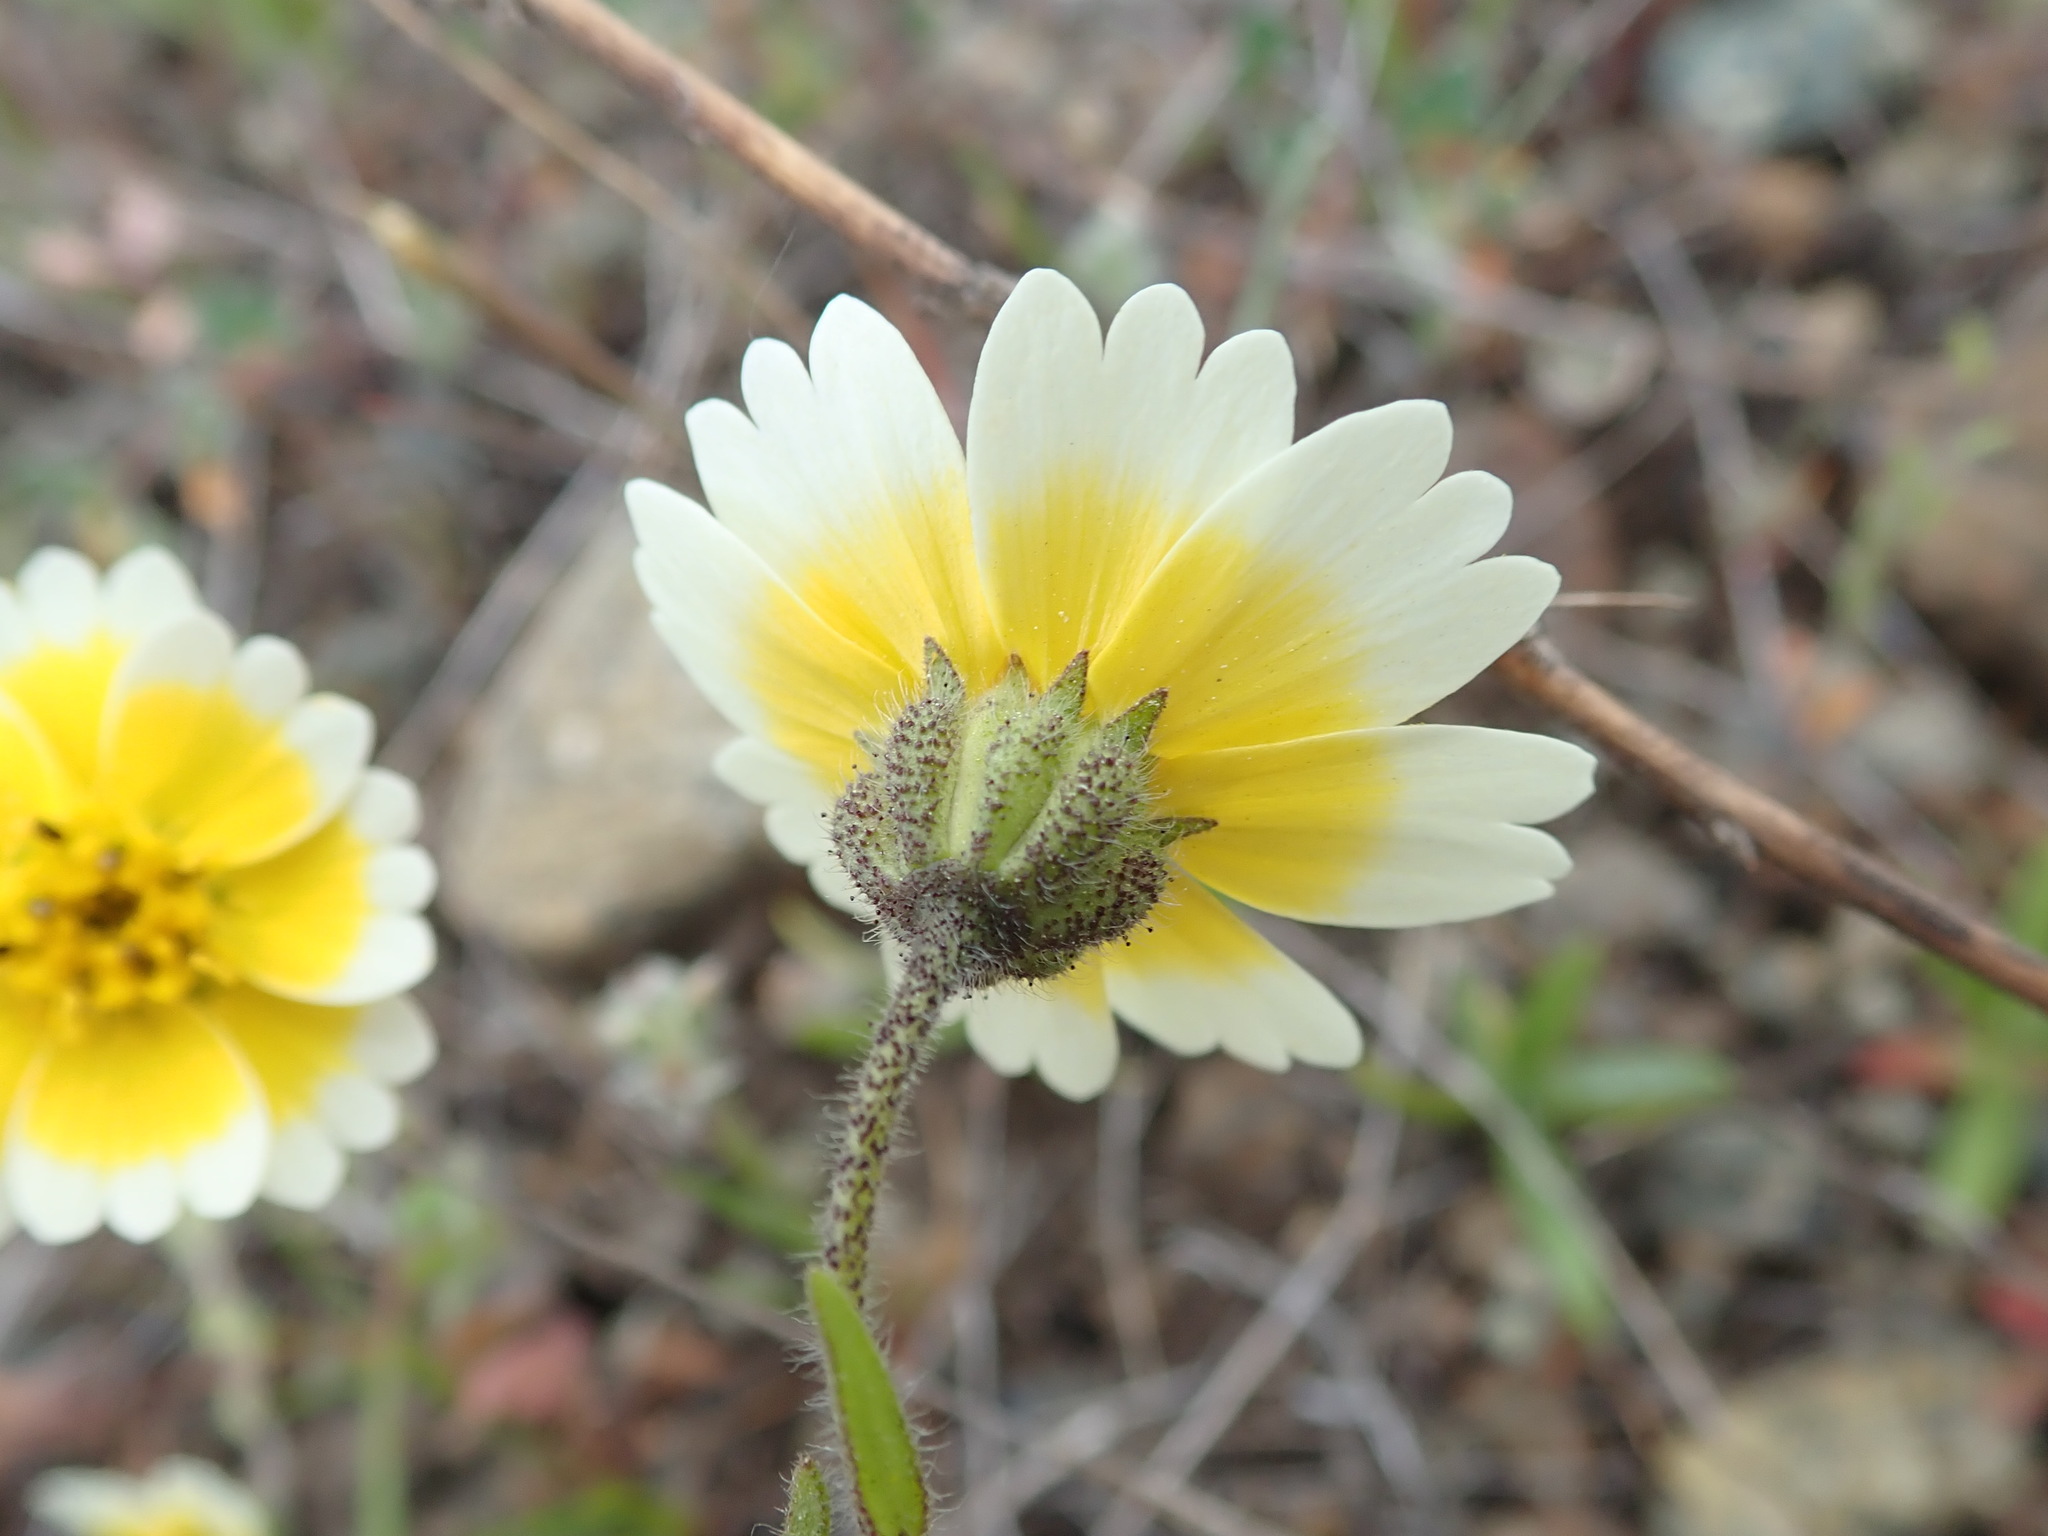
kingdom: Plantae
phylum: Tracheophyta
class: Magnoliopsida
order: Asterales
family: Asteraceae
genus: Layia
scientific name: Layia gaillardioides
